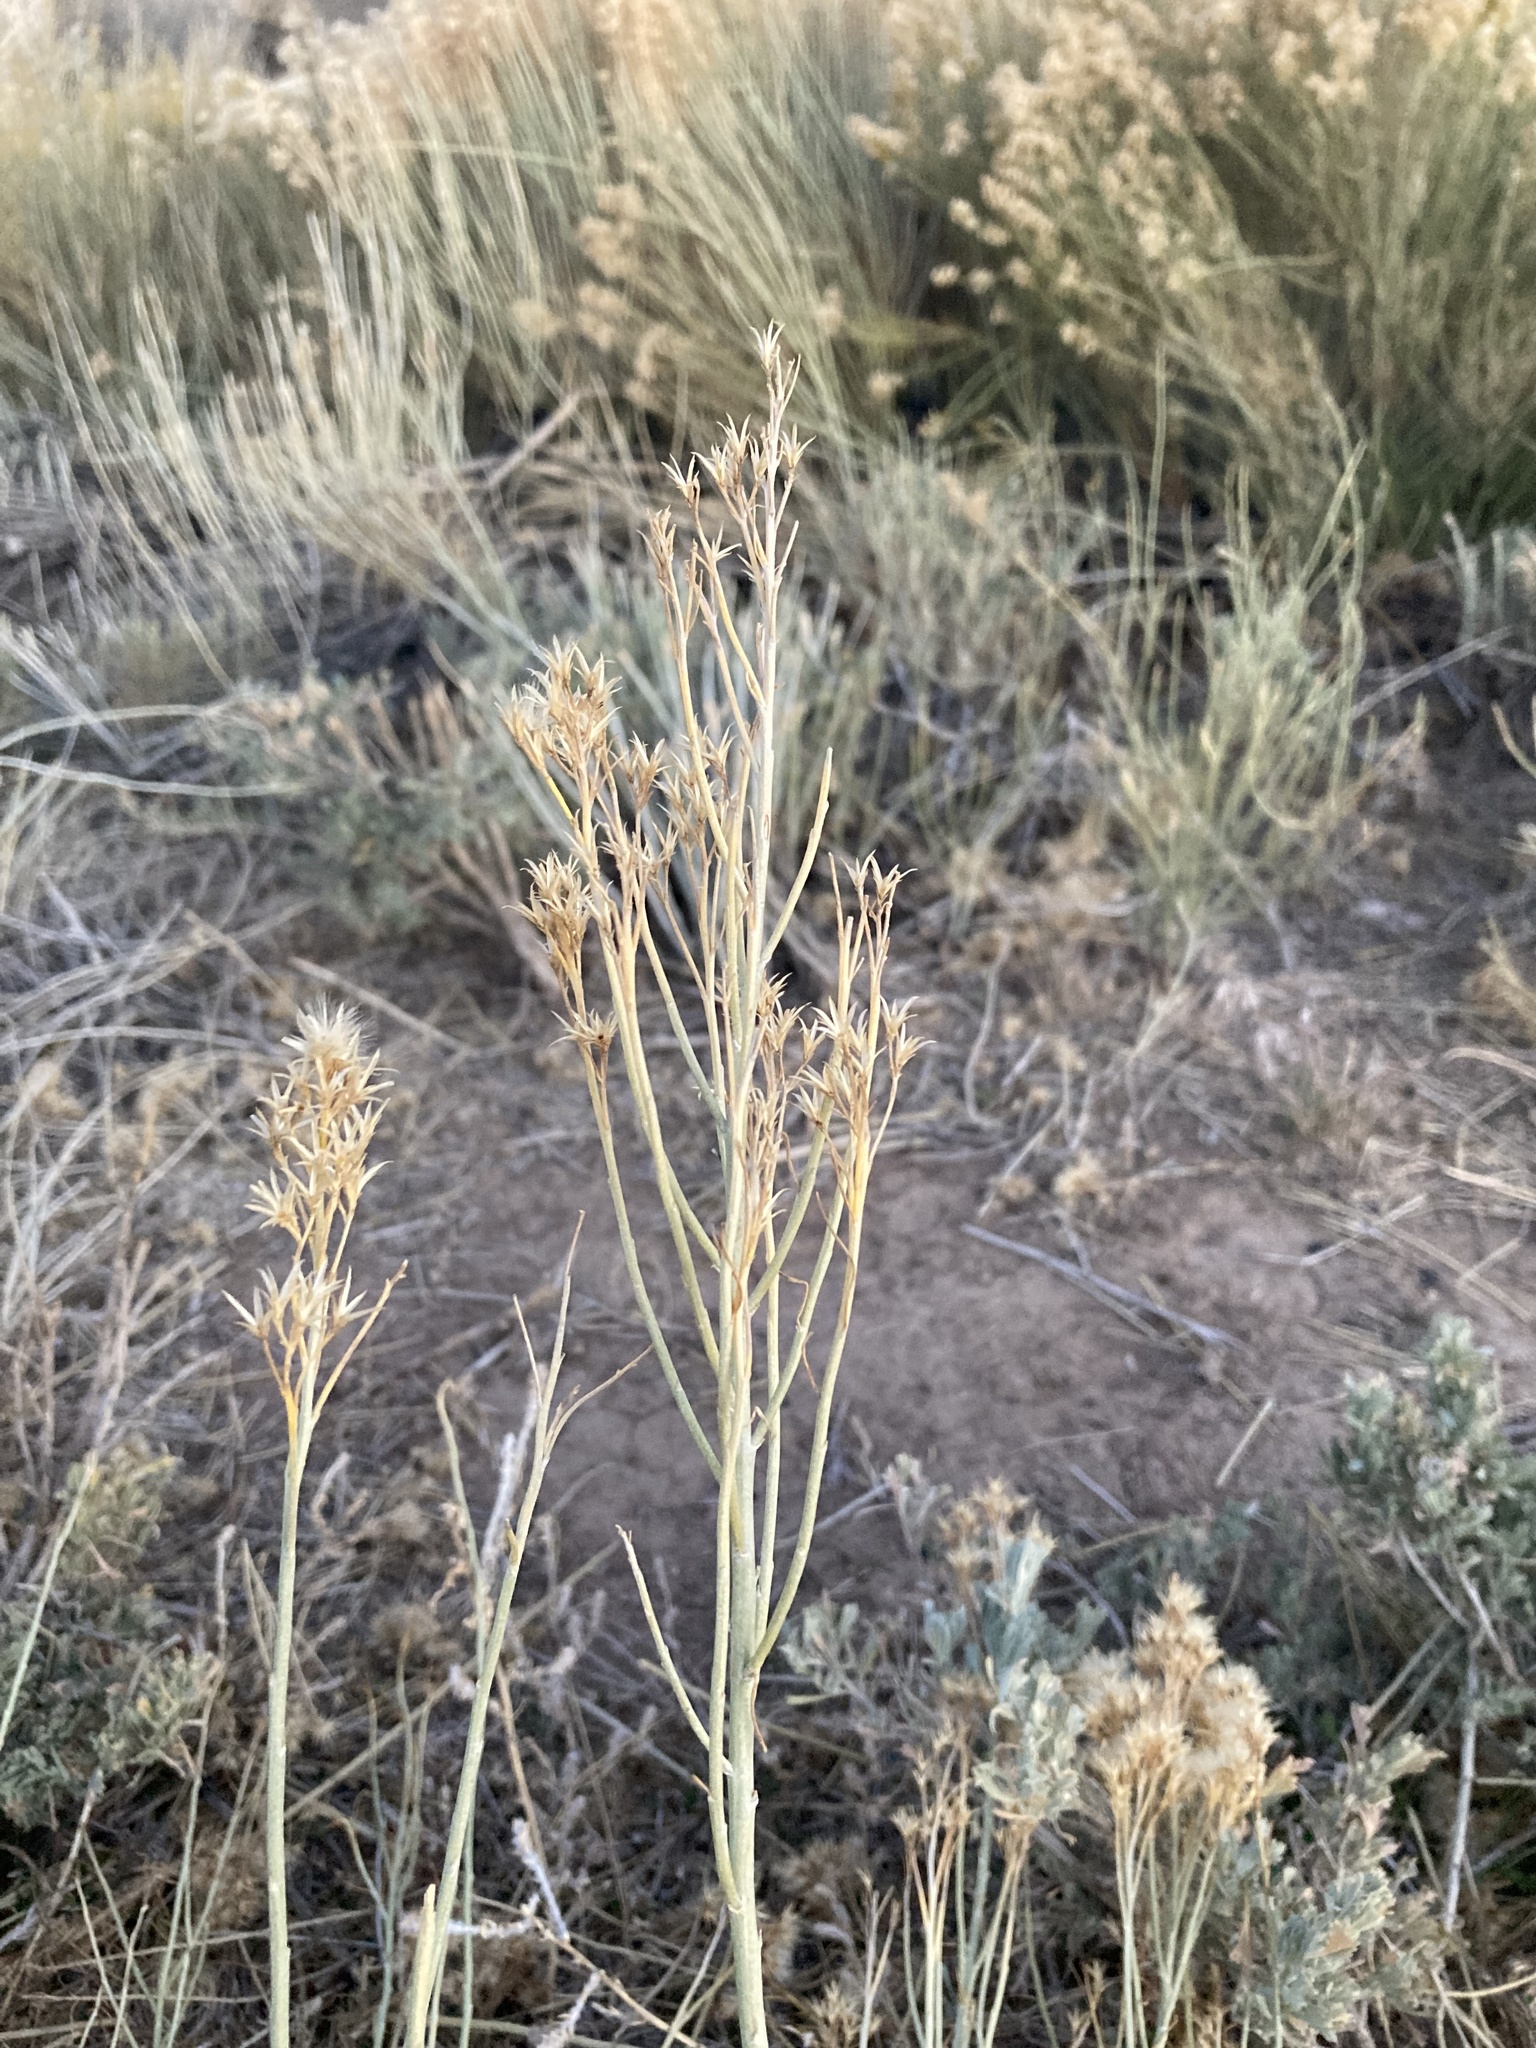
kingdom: Plantae
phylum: Tracheophyta
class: Magnoliopsida
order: Asterales
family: Asteraceae
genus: Ericameria
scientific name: Ericameria nauseosa
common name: Rubber rabbitbrush
